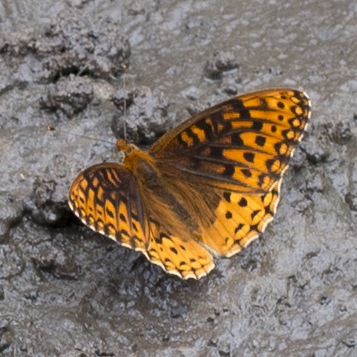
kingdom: Animalia
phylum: Arthropoda
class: Insecta
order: Lepidoptera
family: Nymphalidae
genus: Speyeria
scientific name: Speyeria atlantis
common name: Atlantis fritillary
